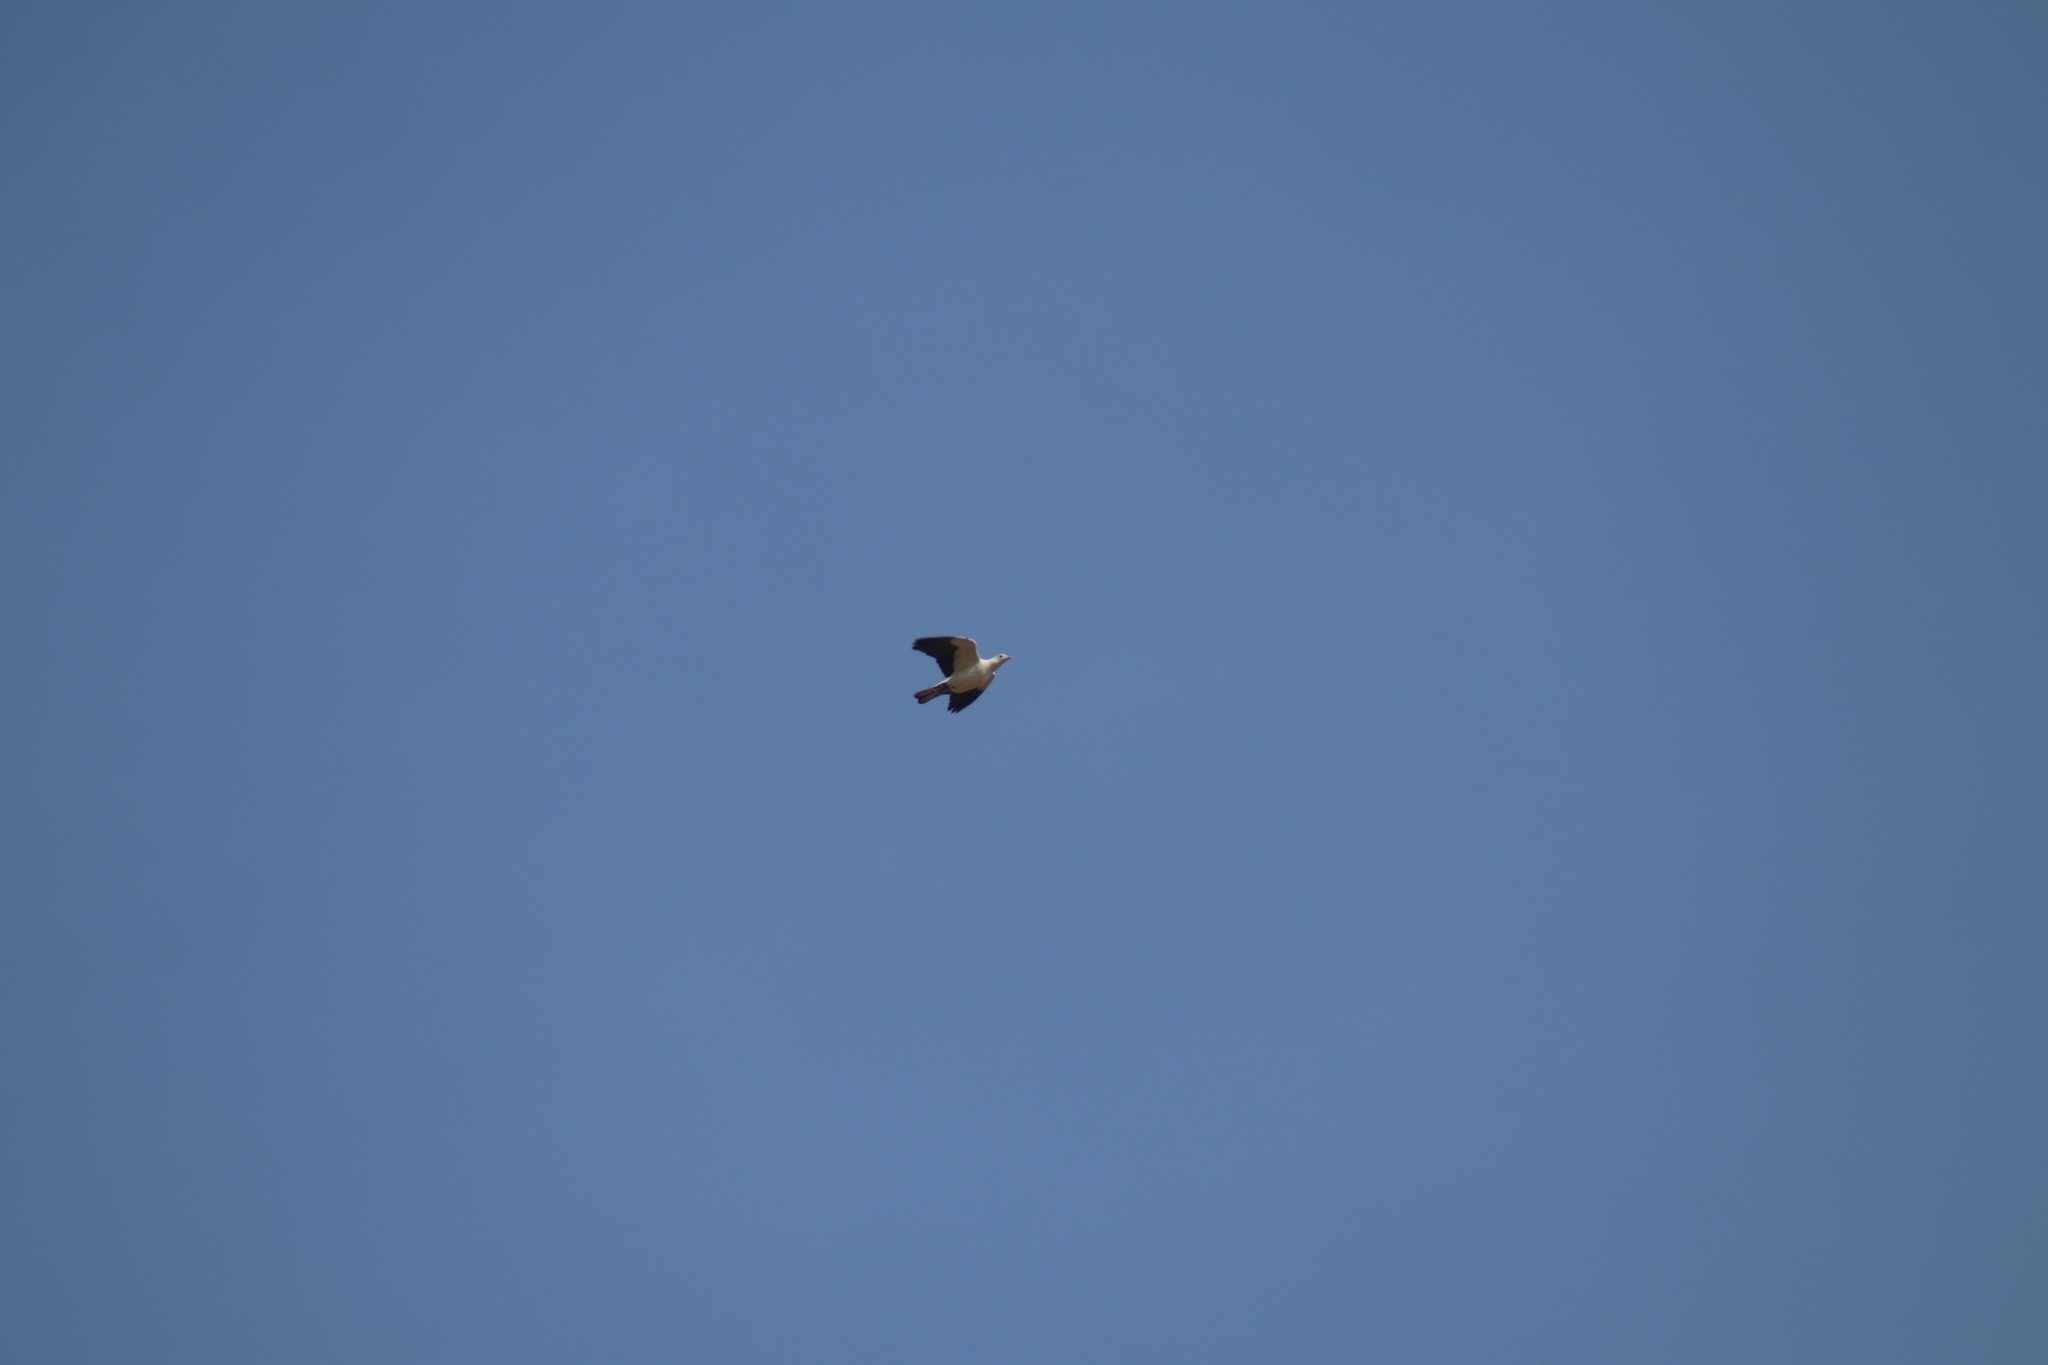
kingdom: Animalia
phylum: Chordata
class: Aves
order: Columbiformes
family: Columbidae
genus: Ducula
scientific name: Ducula spilorrhoa
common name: Torresian imperial pigeon
